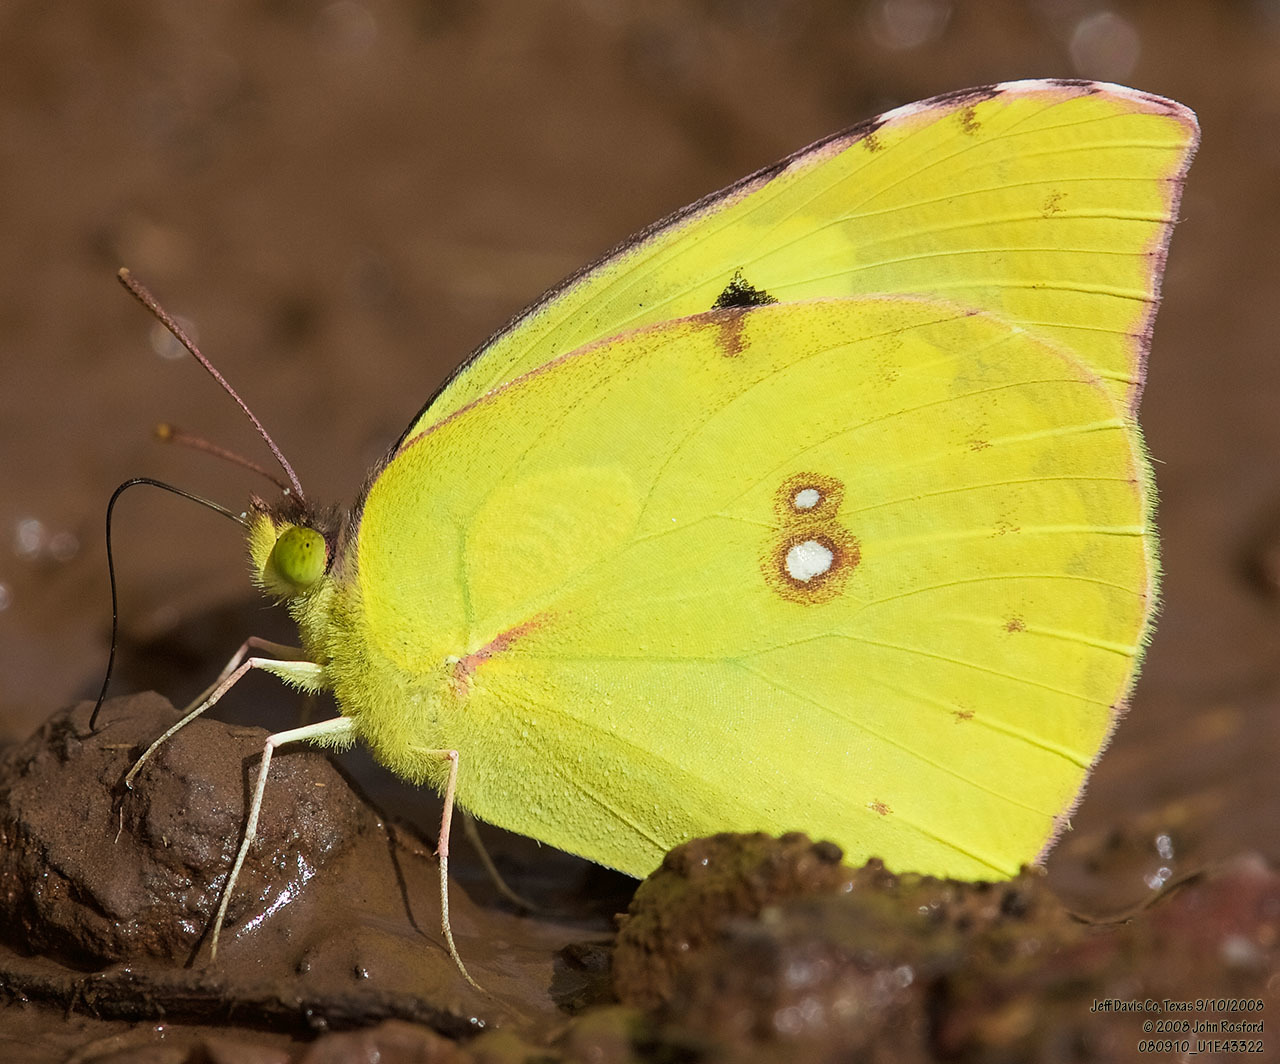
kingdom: Animalia
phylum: Arthropoda
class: Insecta
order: Lepidoptera
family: Pieridae
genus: Zerene
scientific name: Zerene cesonia
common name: Southern dogface
